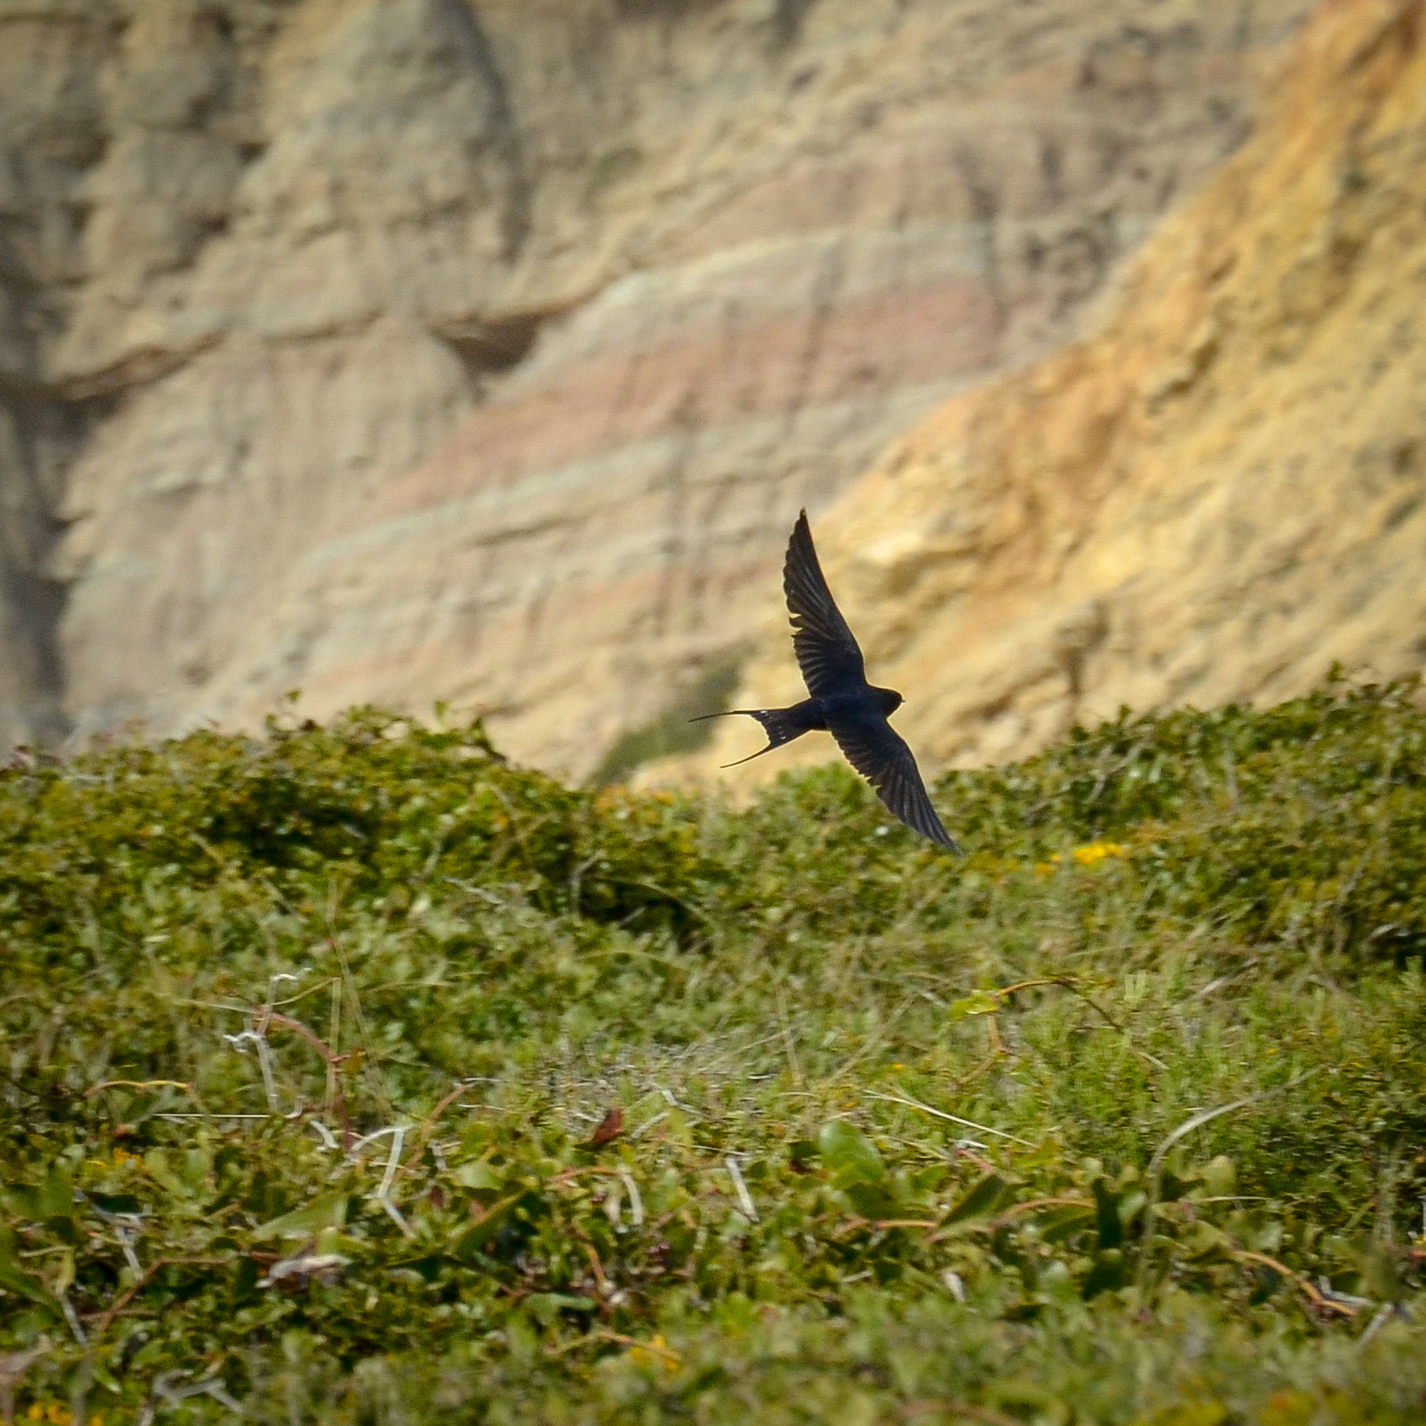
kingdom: Animalia
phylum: Chordata
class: Aves
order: Passeriformes
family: Hirundinidae
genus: Hirundo
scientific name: Hirundo rustica
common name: Barn swallow
